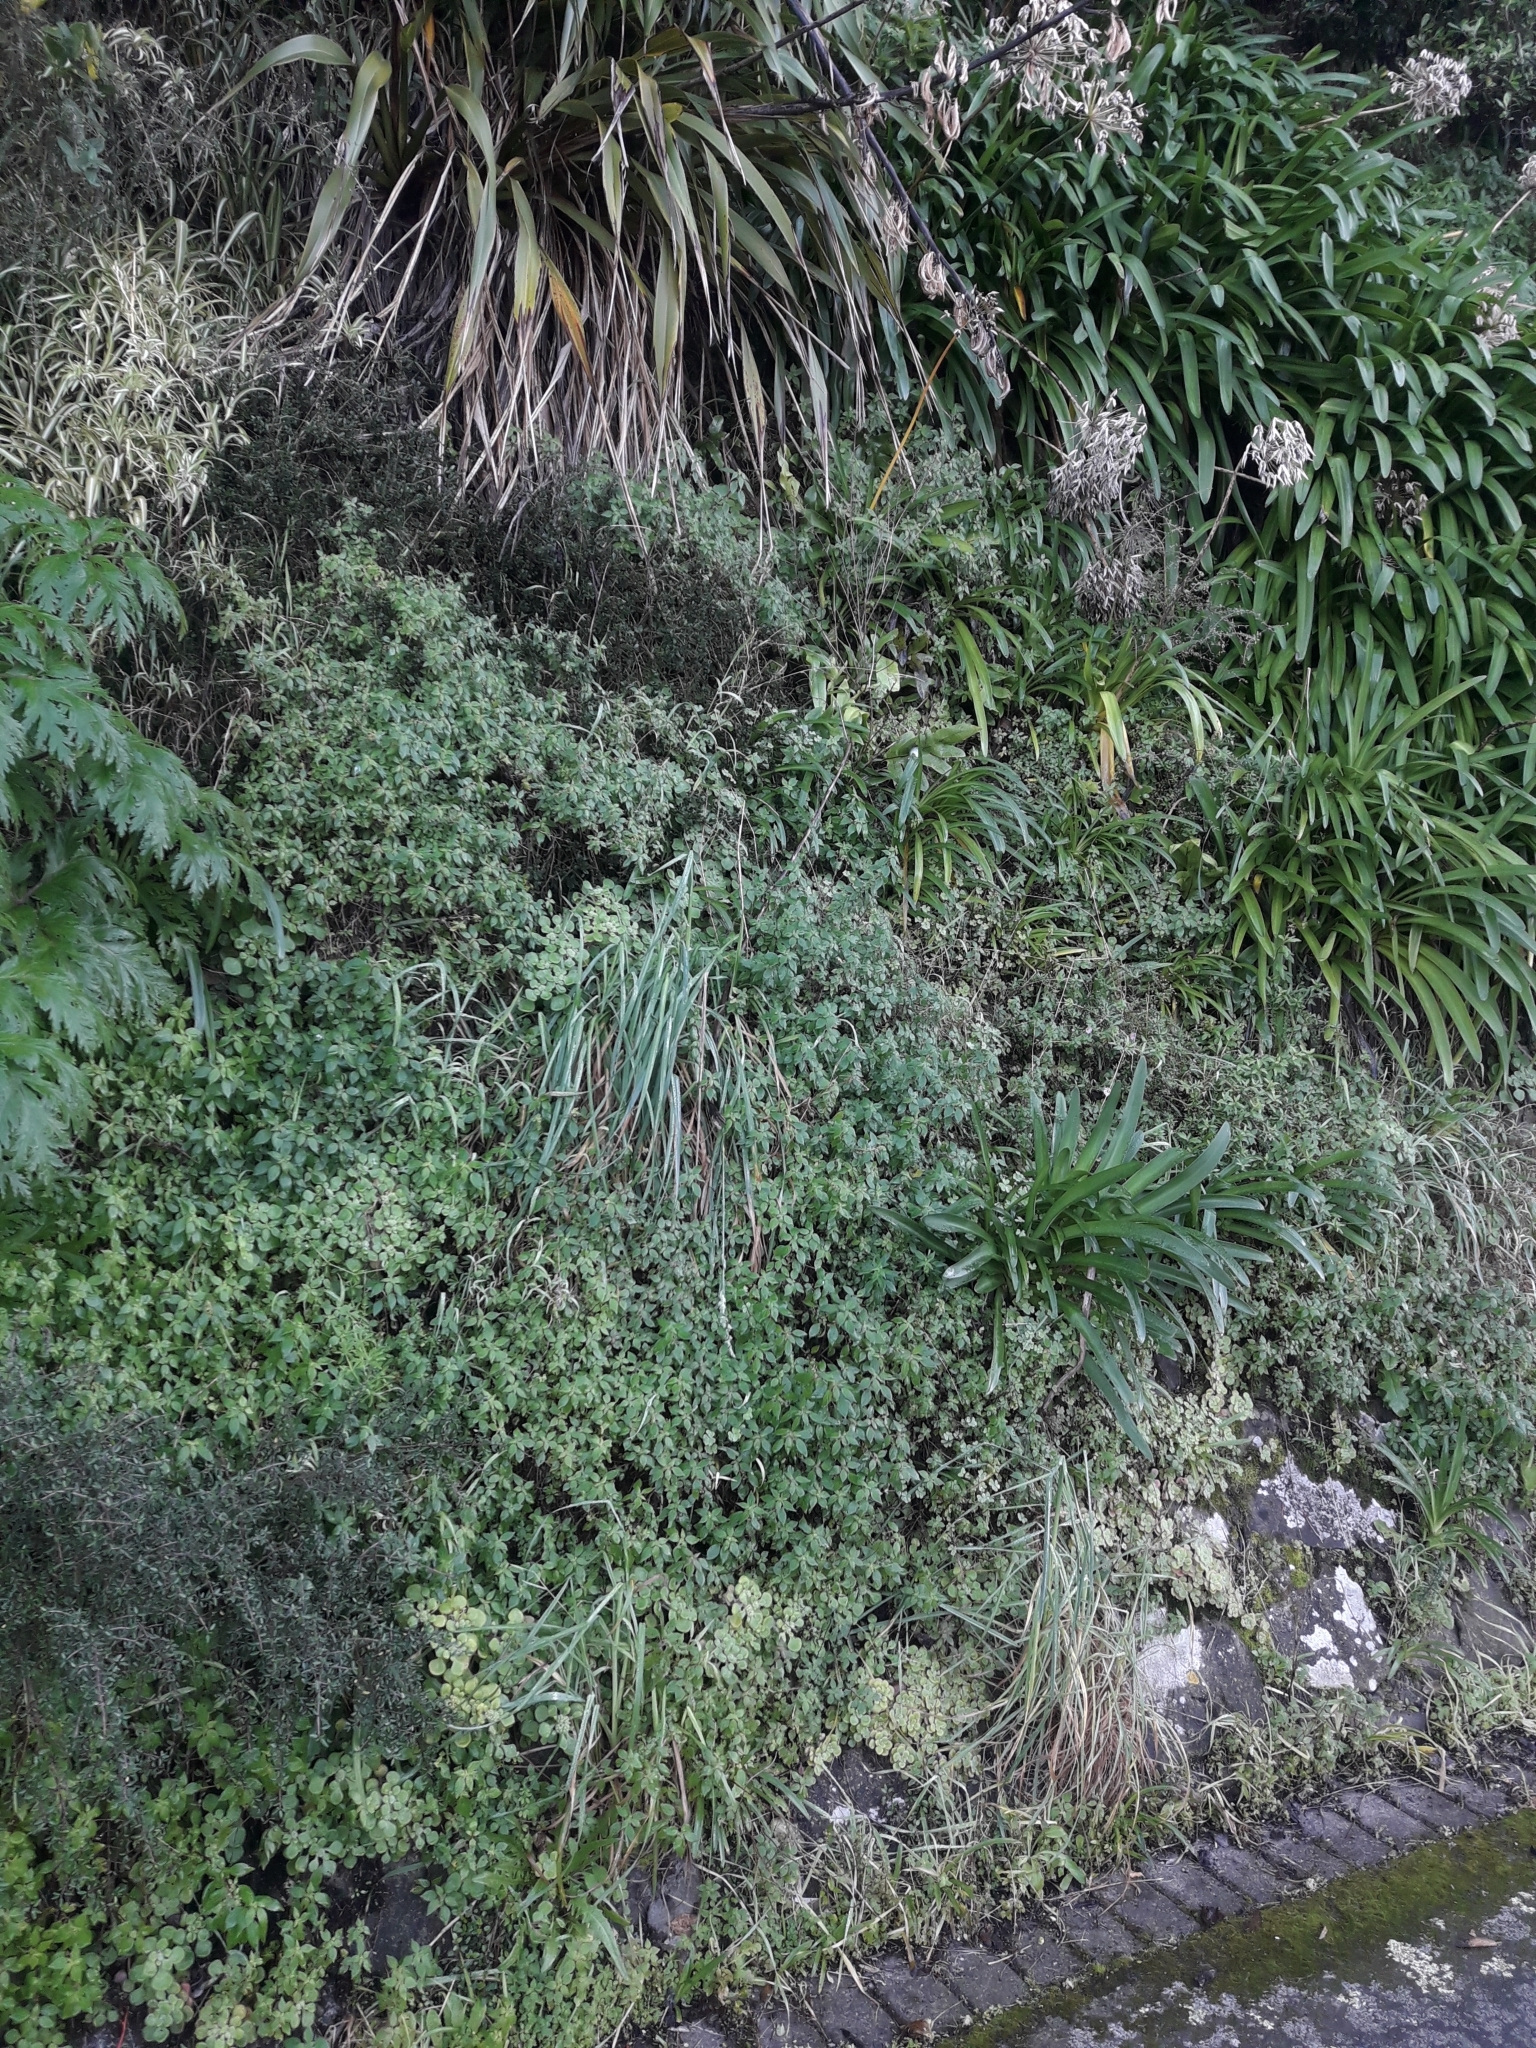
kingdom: Plantae
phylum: Tracheophyta
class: Magnoliopsida
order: Saxifragales
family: Crassulaceae
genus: Aichryson
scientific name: Aichryson laxum
